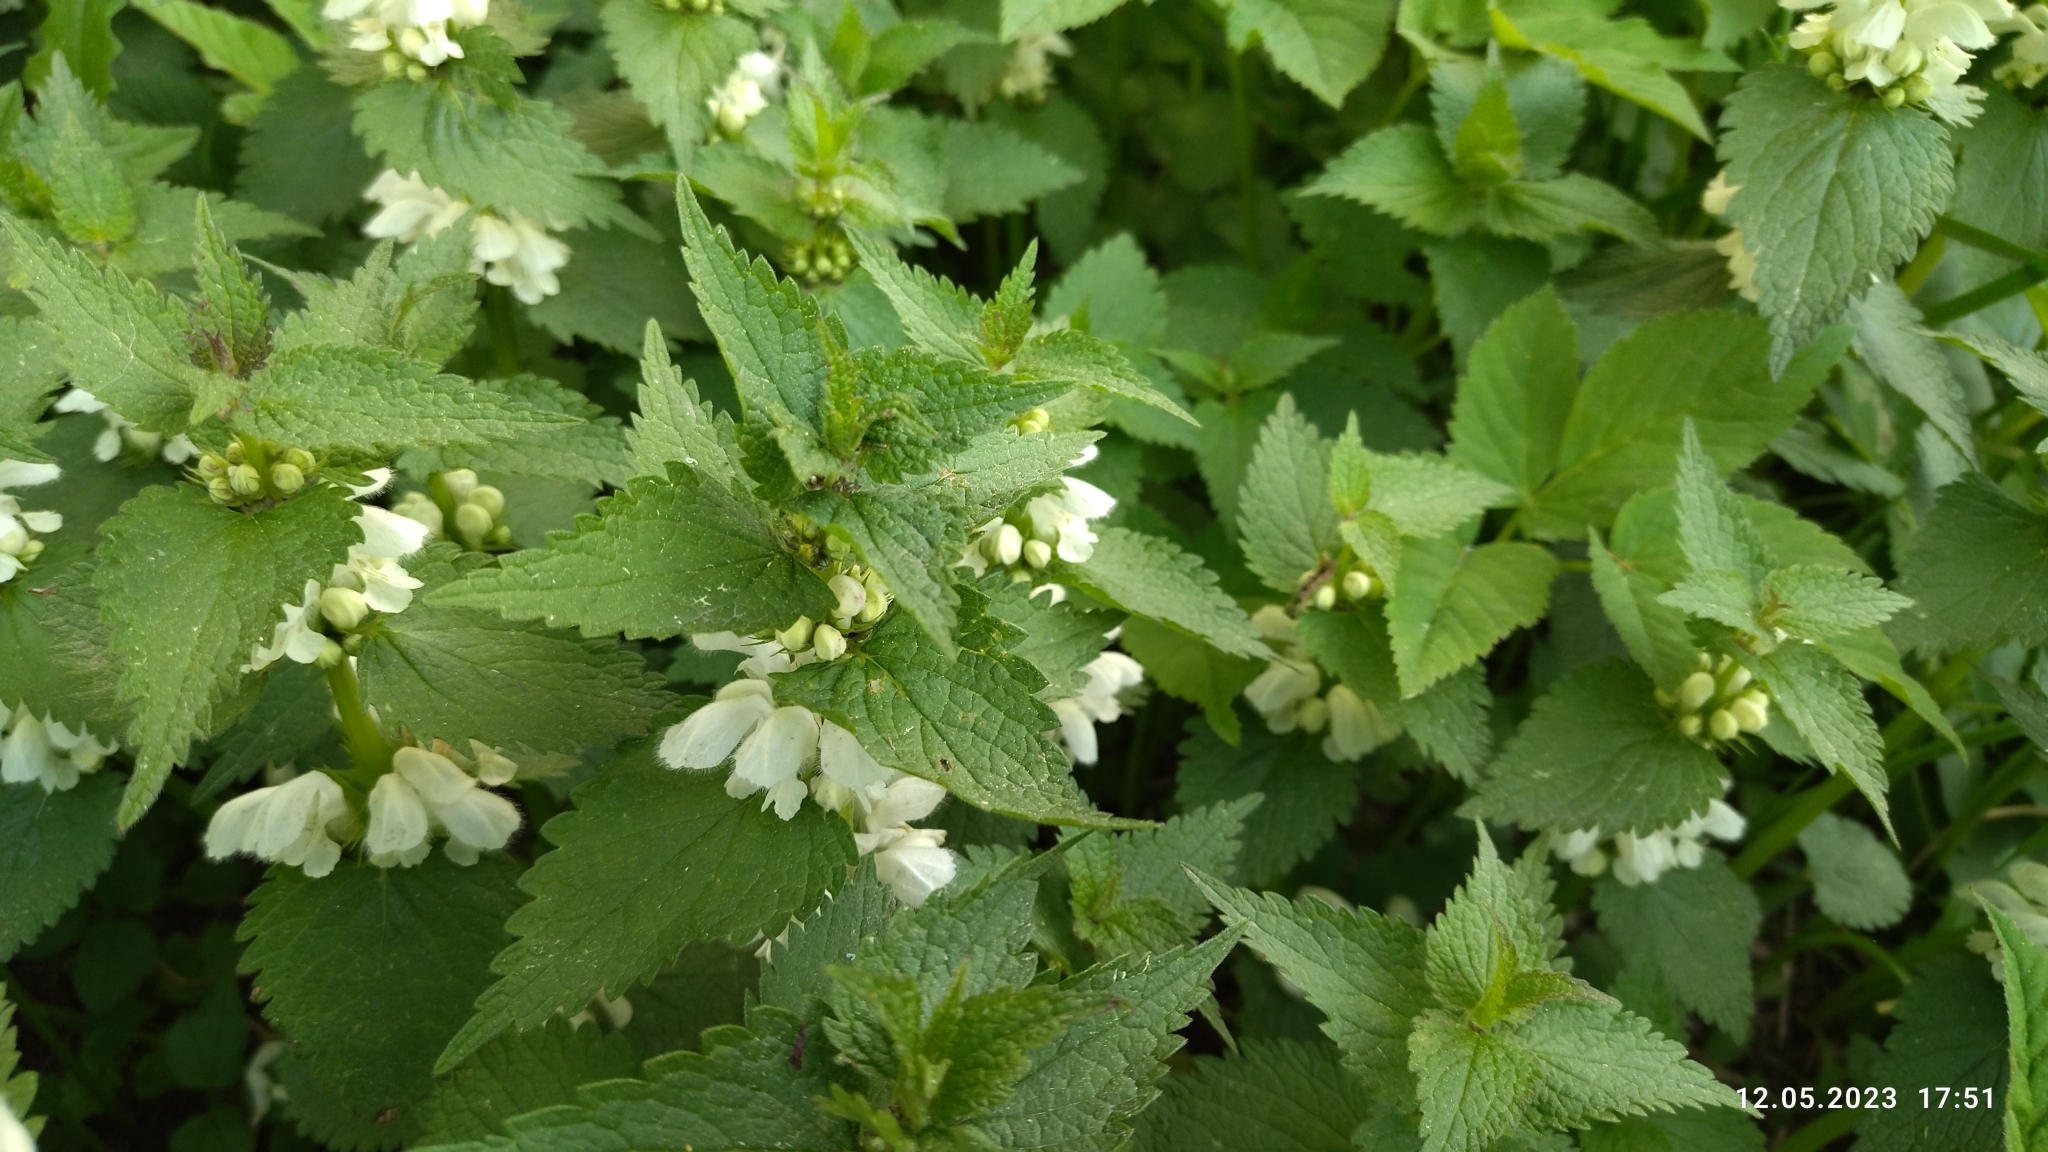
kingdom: Plantae
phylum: Tracheophyta
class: Magnoliopsida
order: Lamiales
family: Lamiaceae
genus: Lamium
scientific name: Lamium album
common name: White dead-nettle
